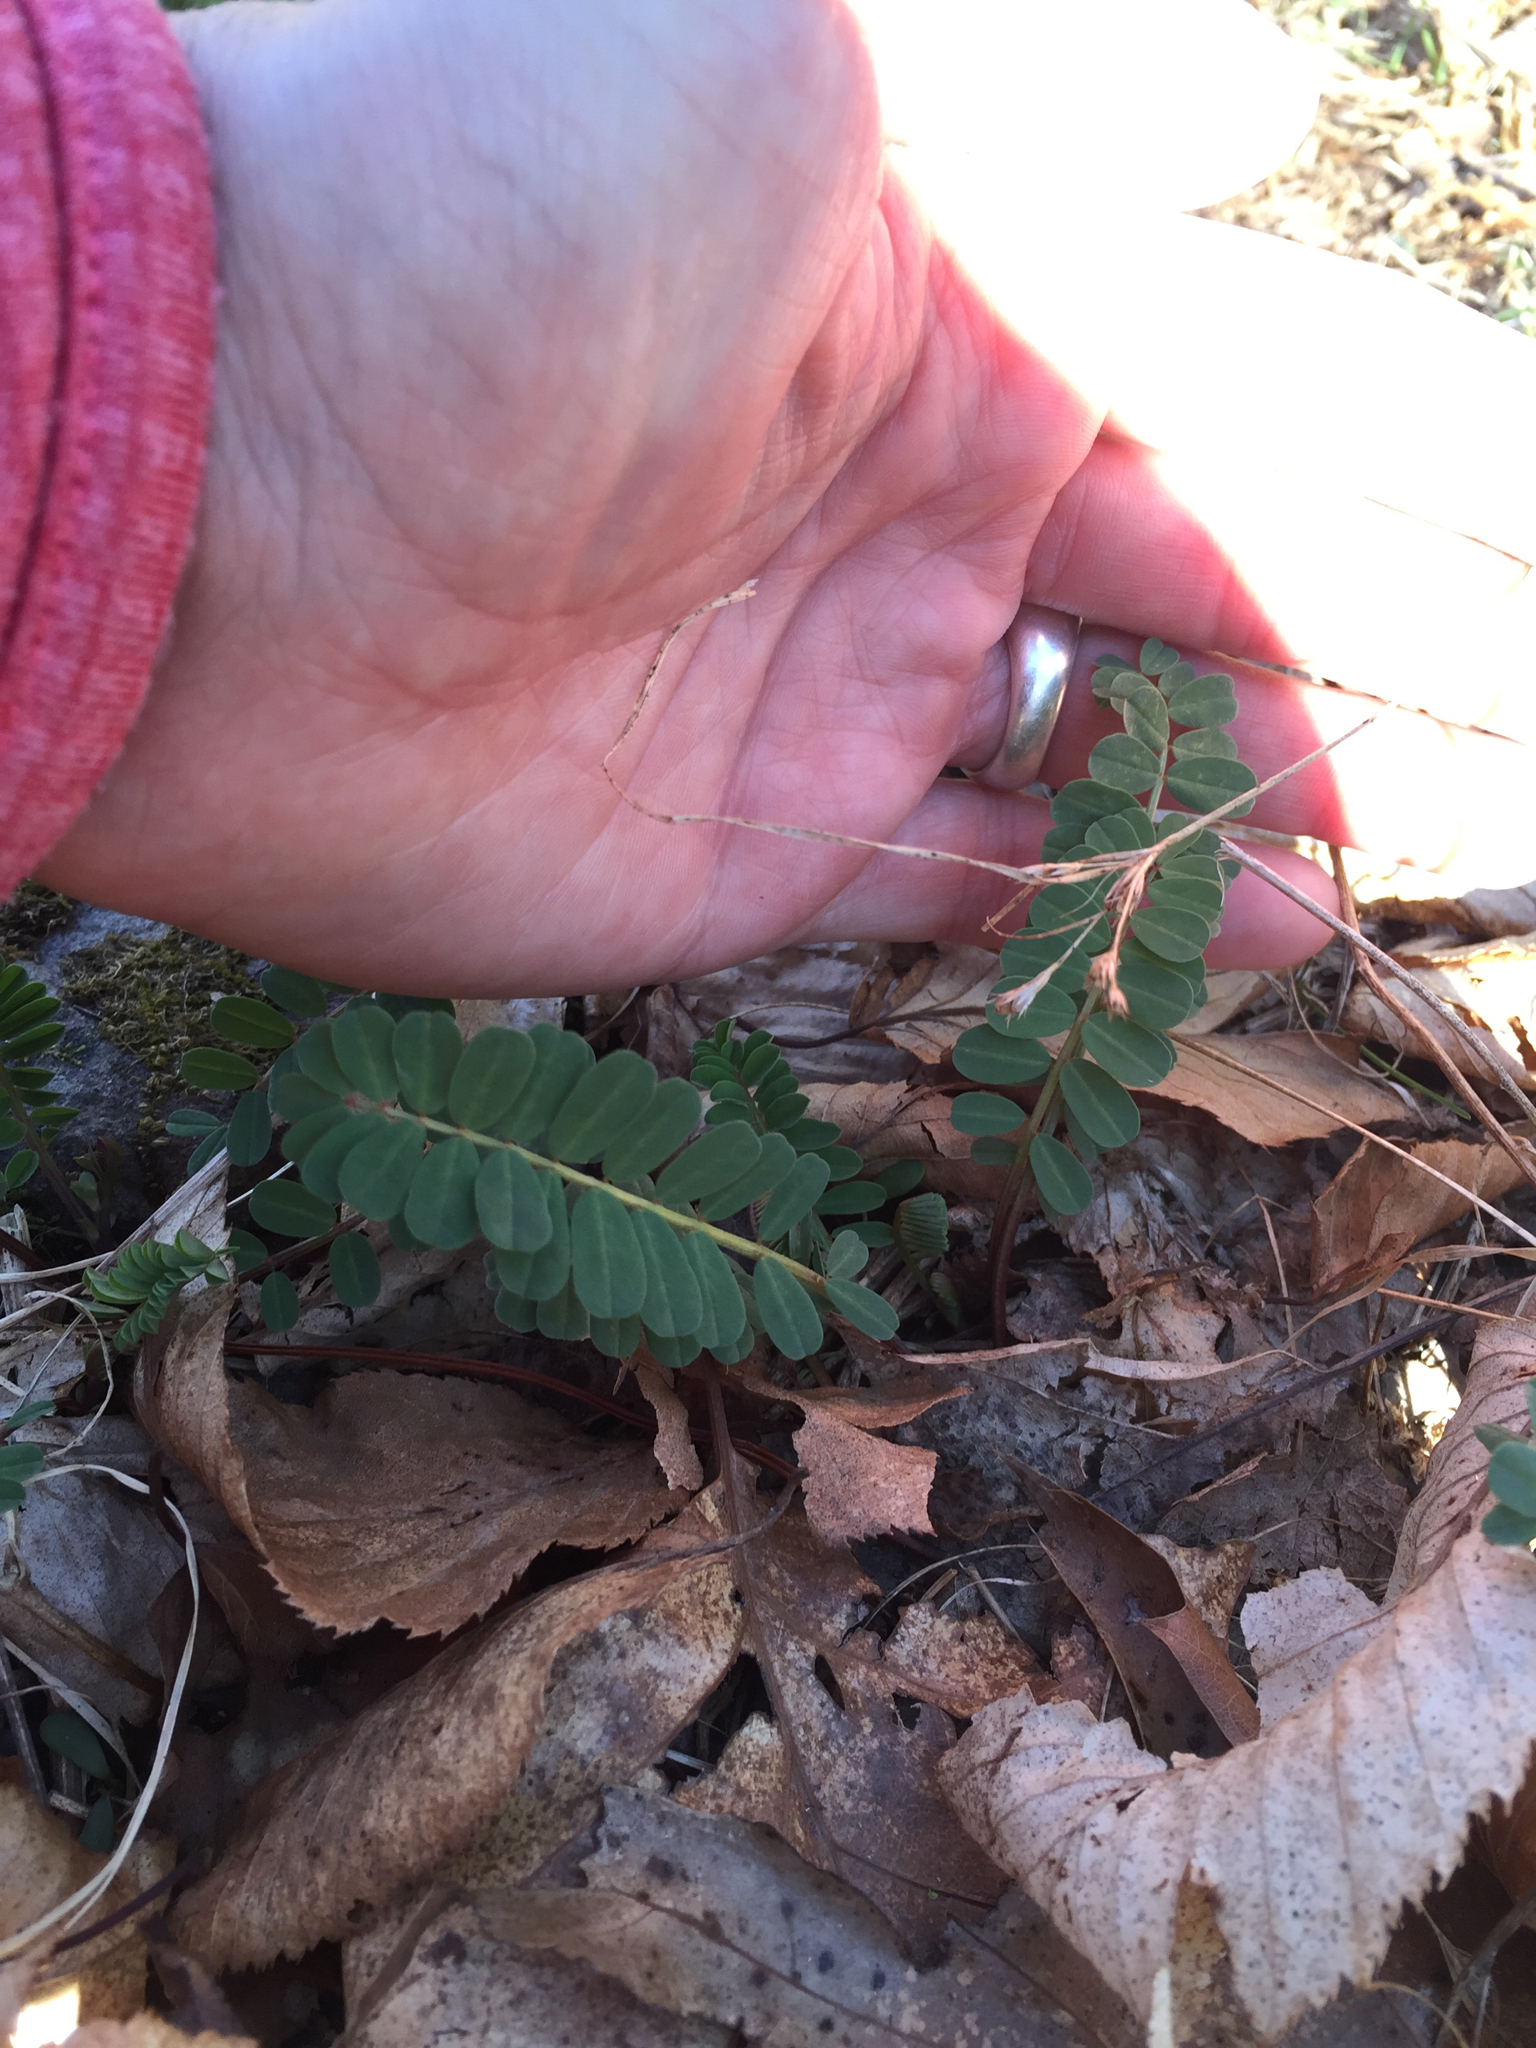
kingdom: Plantae
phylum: Tracheophyta
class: Magnoliopsida
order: Fabales
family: Fabaceae
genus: Coronilla
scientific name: Coronilla varia
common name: Crownvetch
